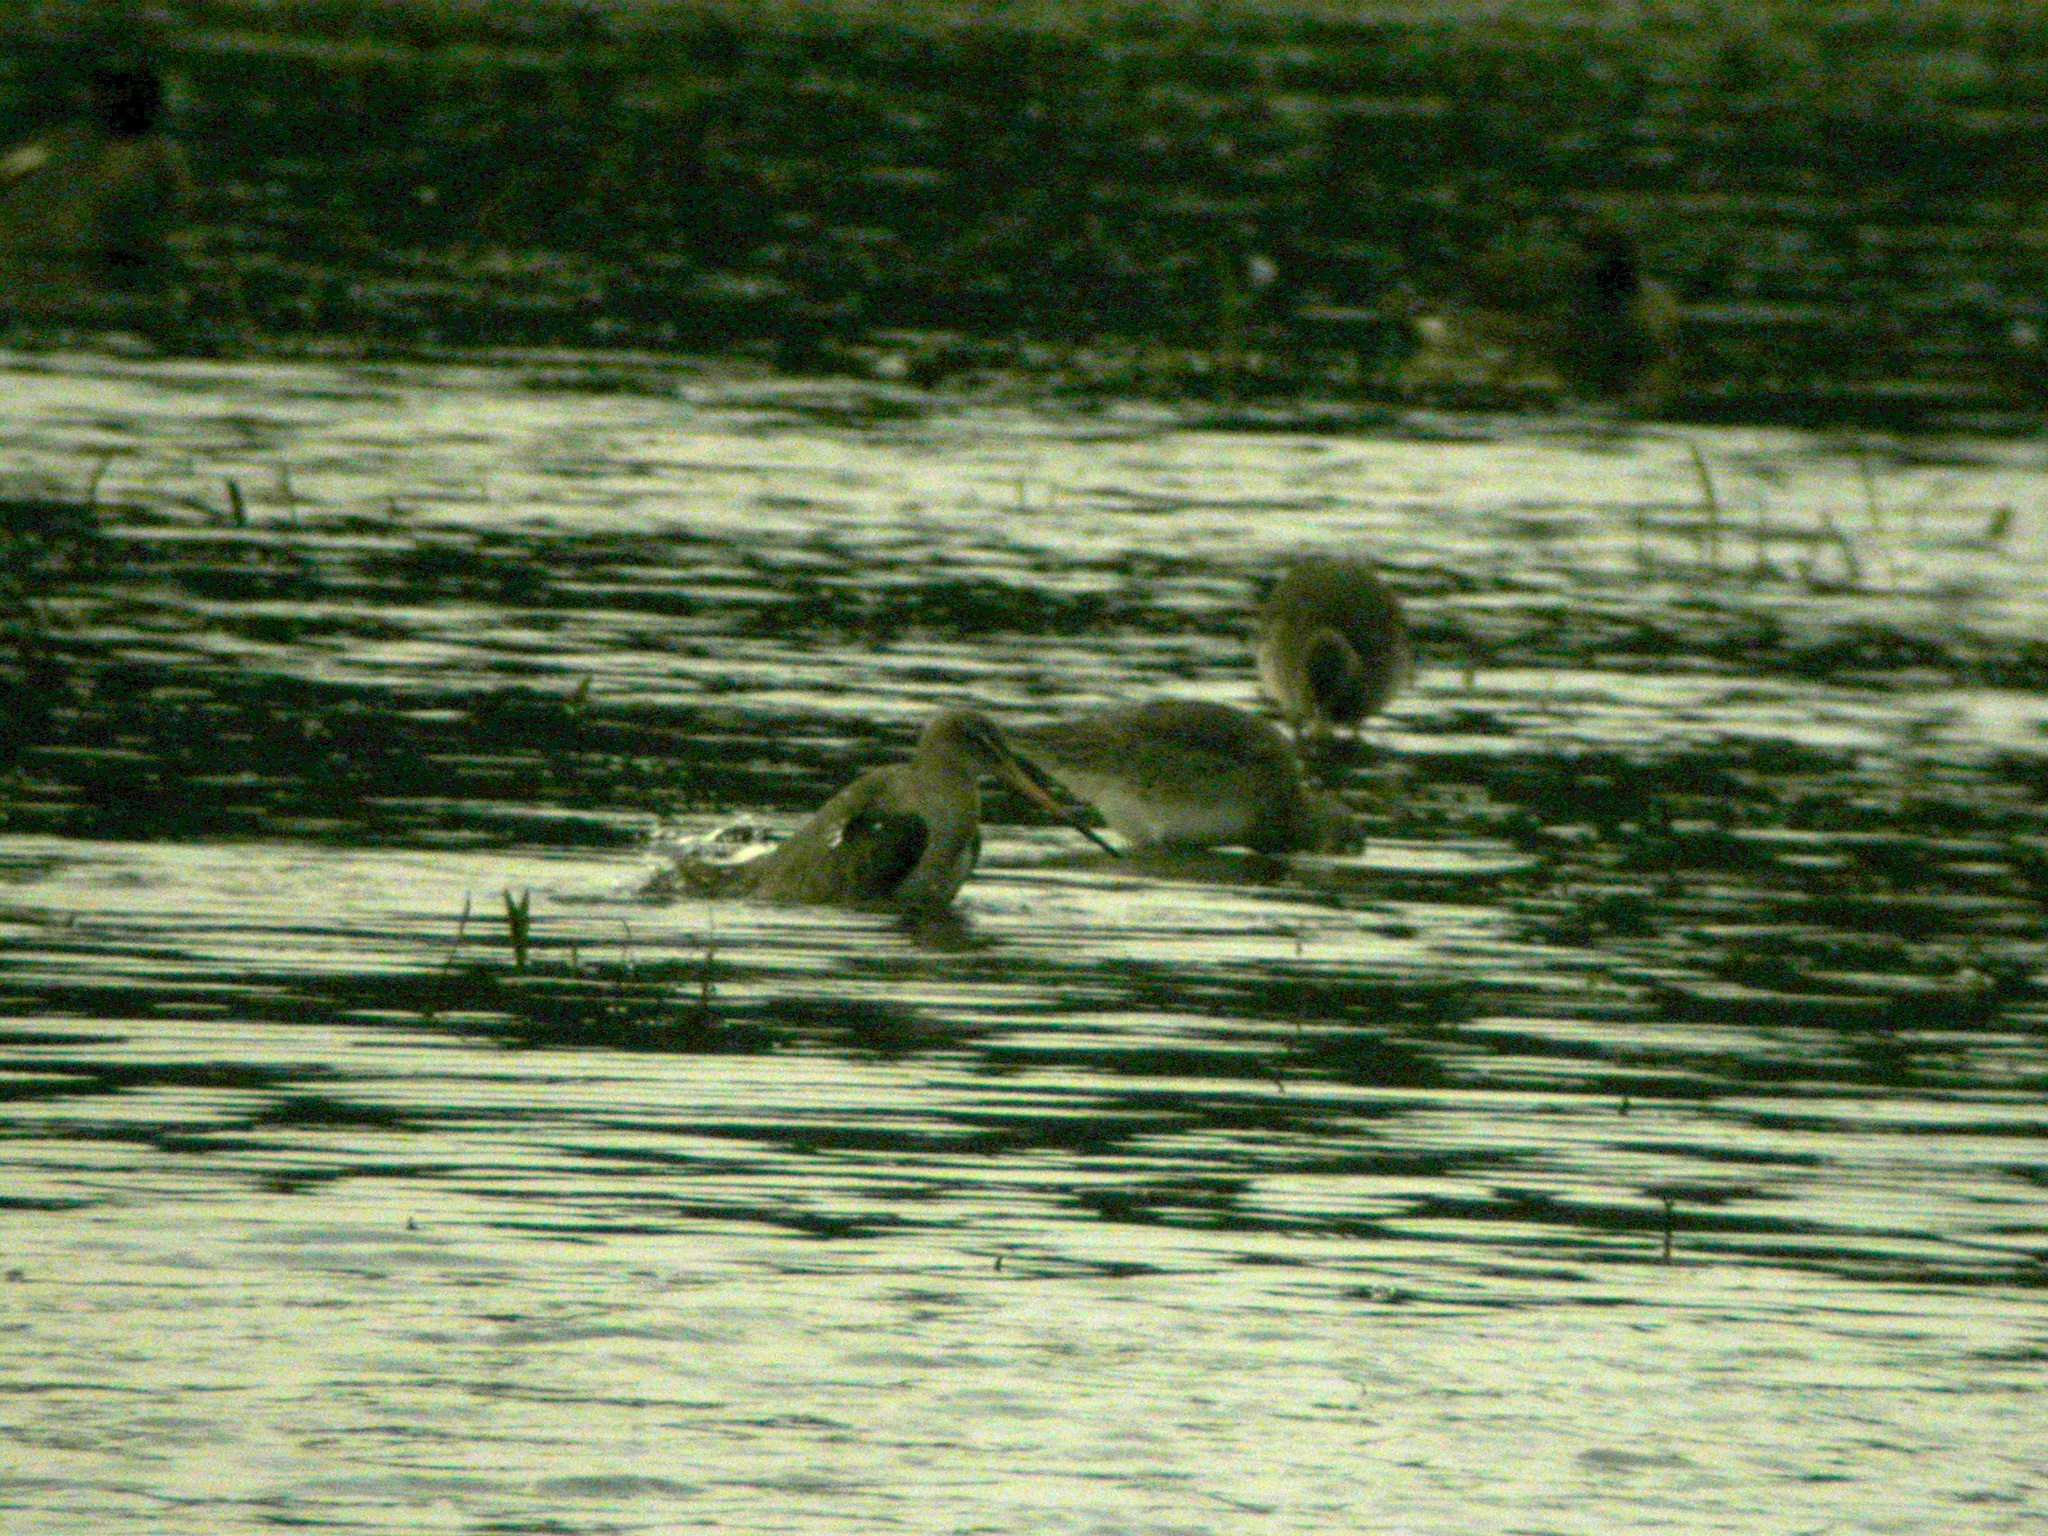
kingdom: Animalia
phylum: Chordata
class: Aves
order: Charadriiformes
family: Scolopacidae
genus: Limosa
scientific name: Limosa limosa
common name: Black-tailed godwit
